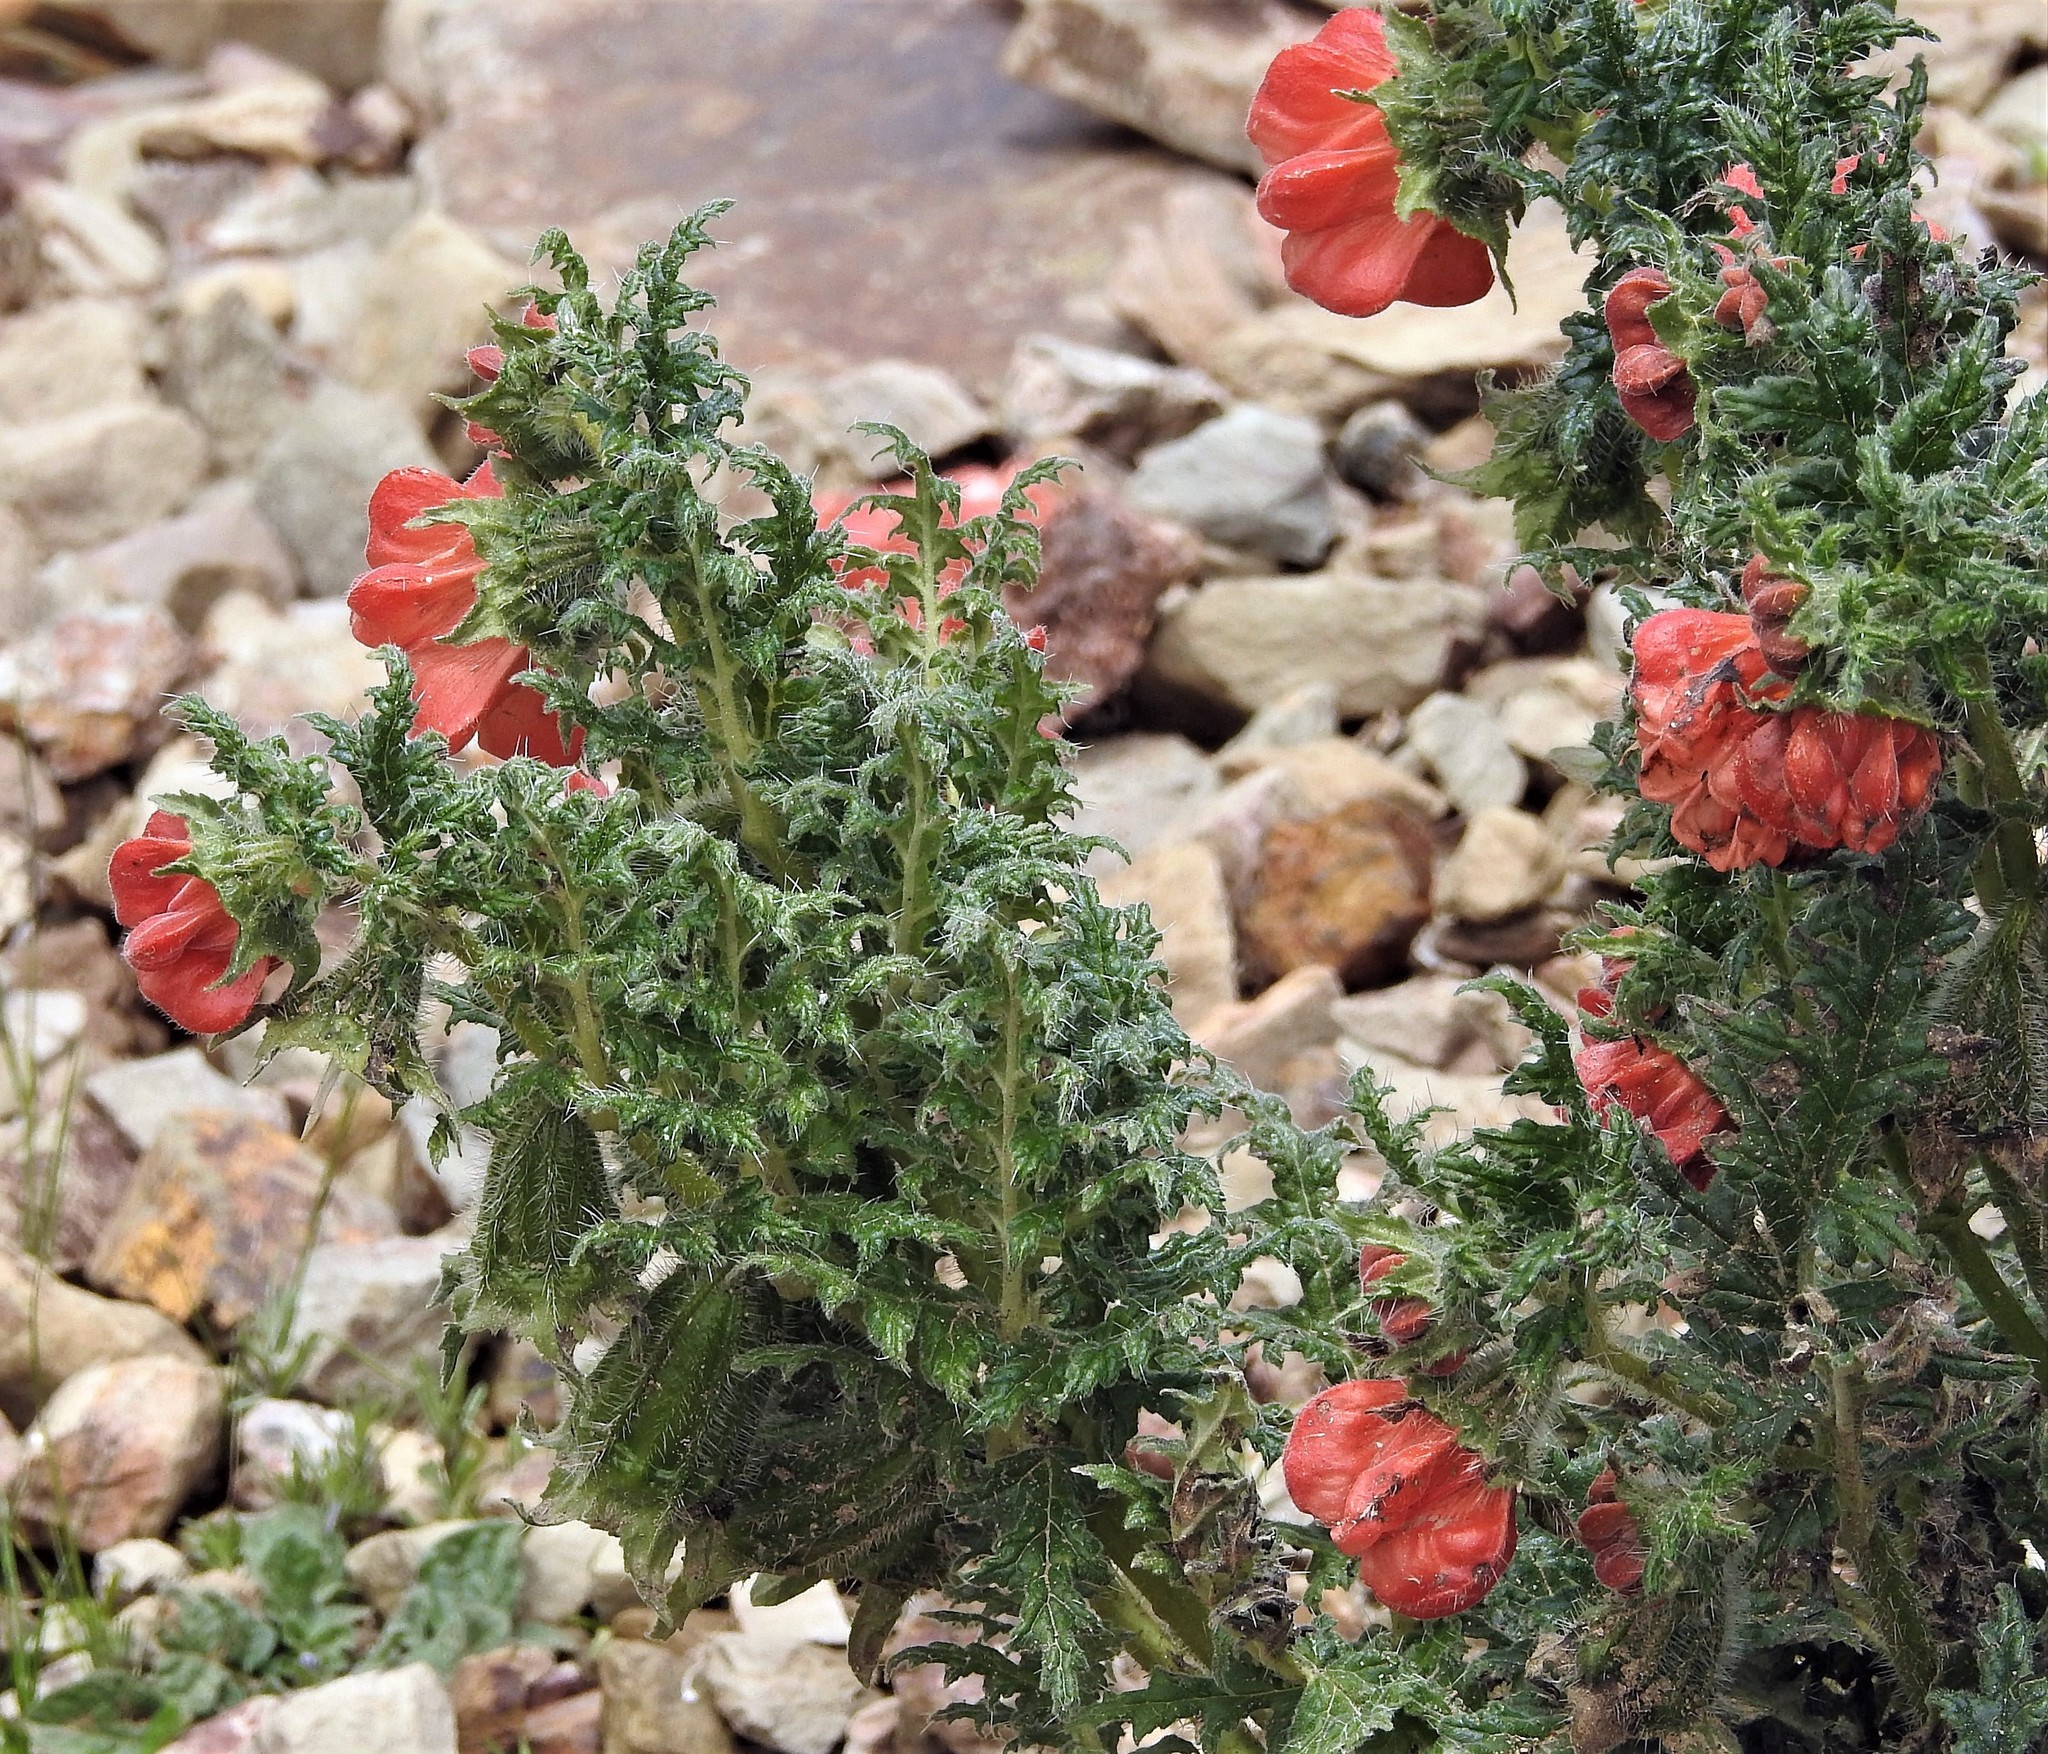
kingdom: Plantae
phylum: Tracheophyta
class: Magnoliopsida
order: Cornales
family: Loasaceae
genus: Caiophora
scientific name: Caiophora chuquitensis
